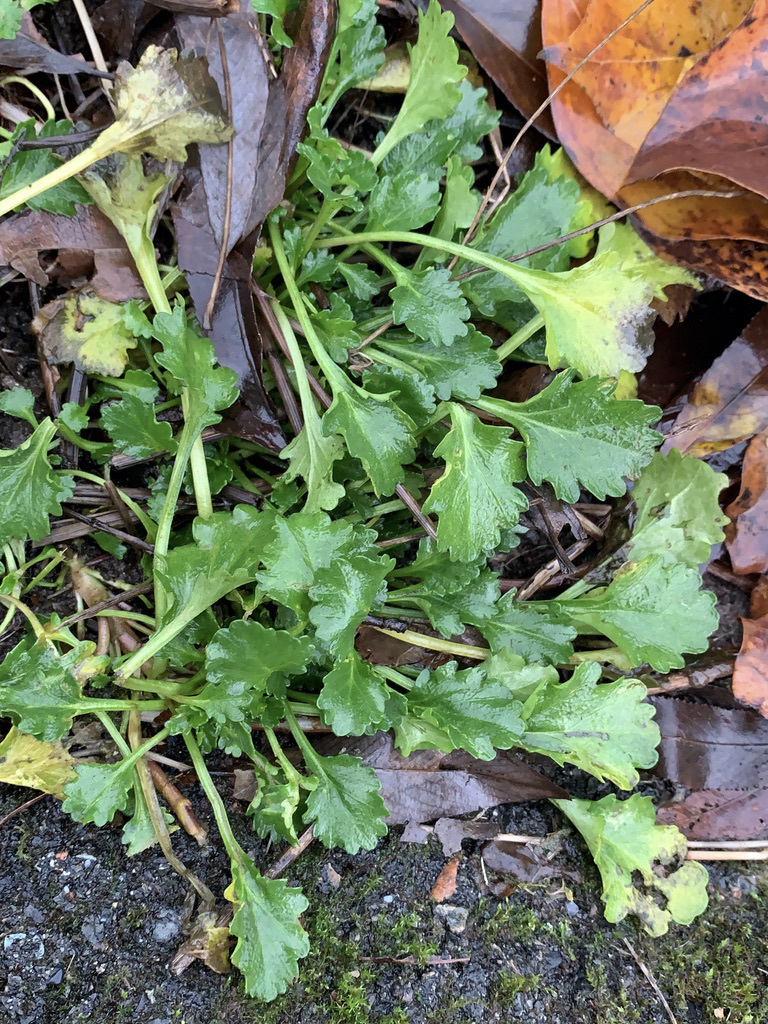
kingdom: Plantae
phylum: Tracheophyta
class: Magnoliopsida
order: Asterales
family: Asteraceae
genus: Leucanthemum
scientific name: Leucanthemum vulgare
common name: Oxeye daisy
